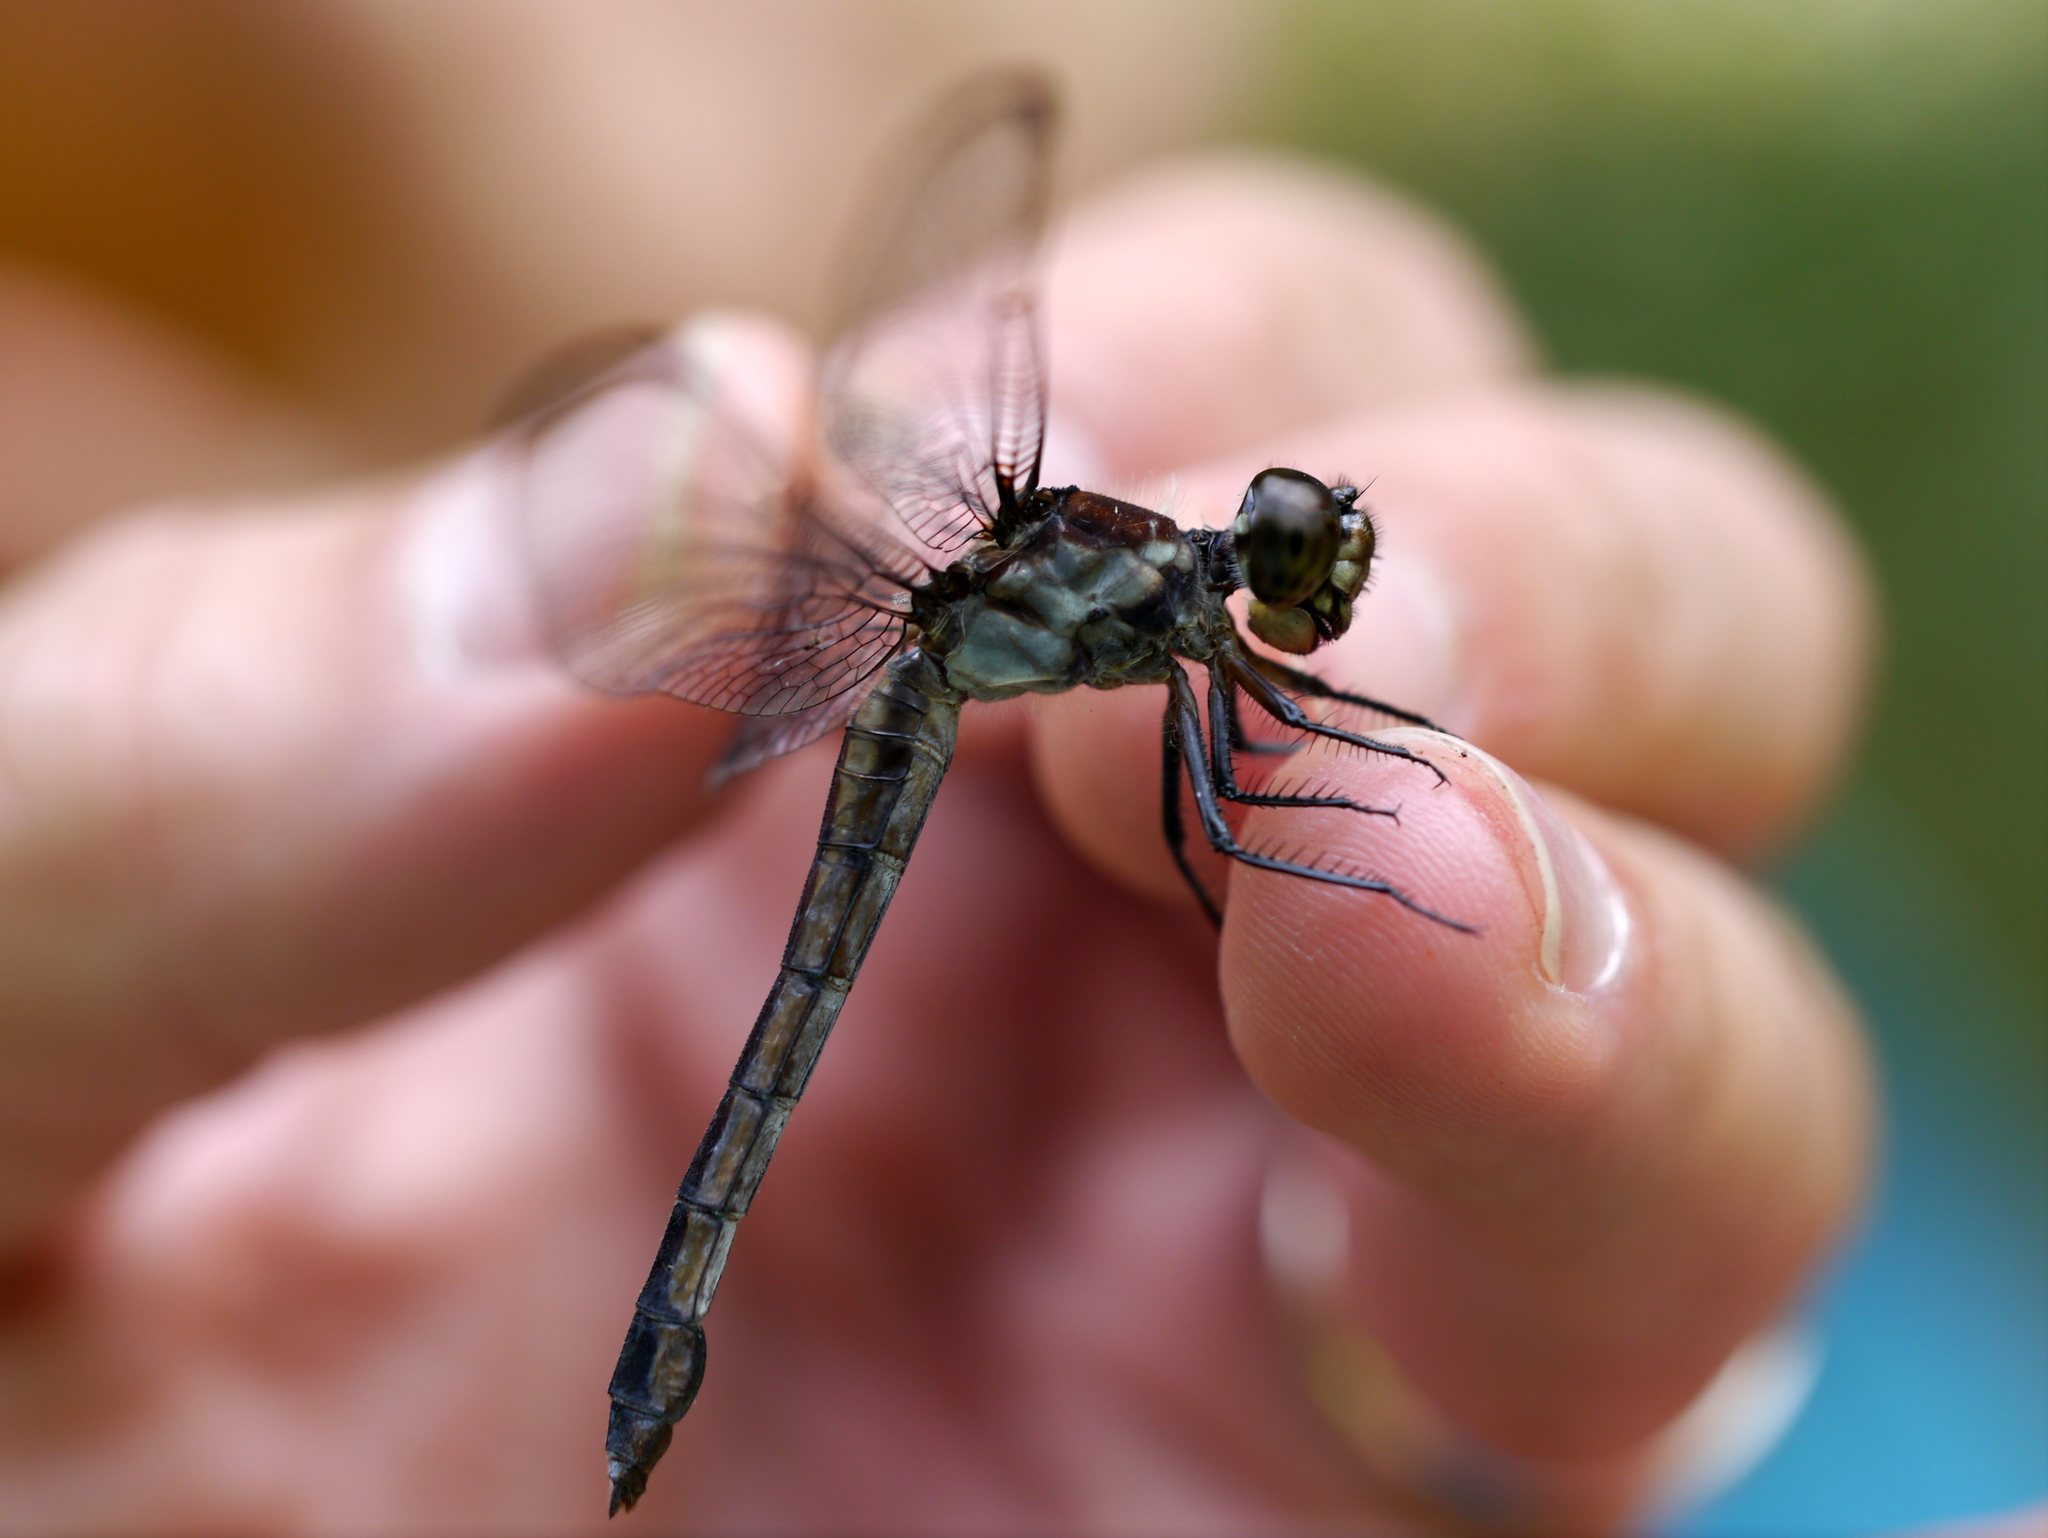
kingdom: Animalia
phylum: Arthropoda
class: Insecta
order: Odonata
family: Libellulidae
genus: Libellula
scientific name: Libellula incesta
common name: Slaty skimmer
